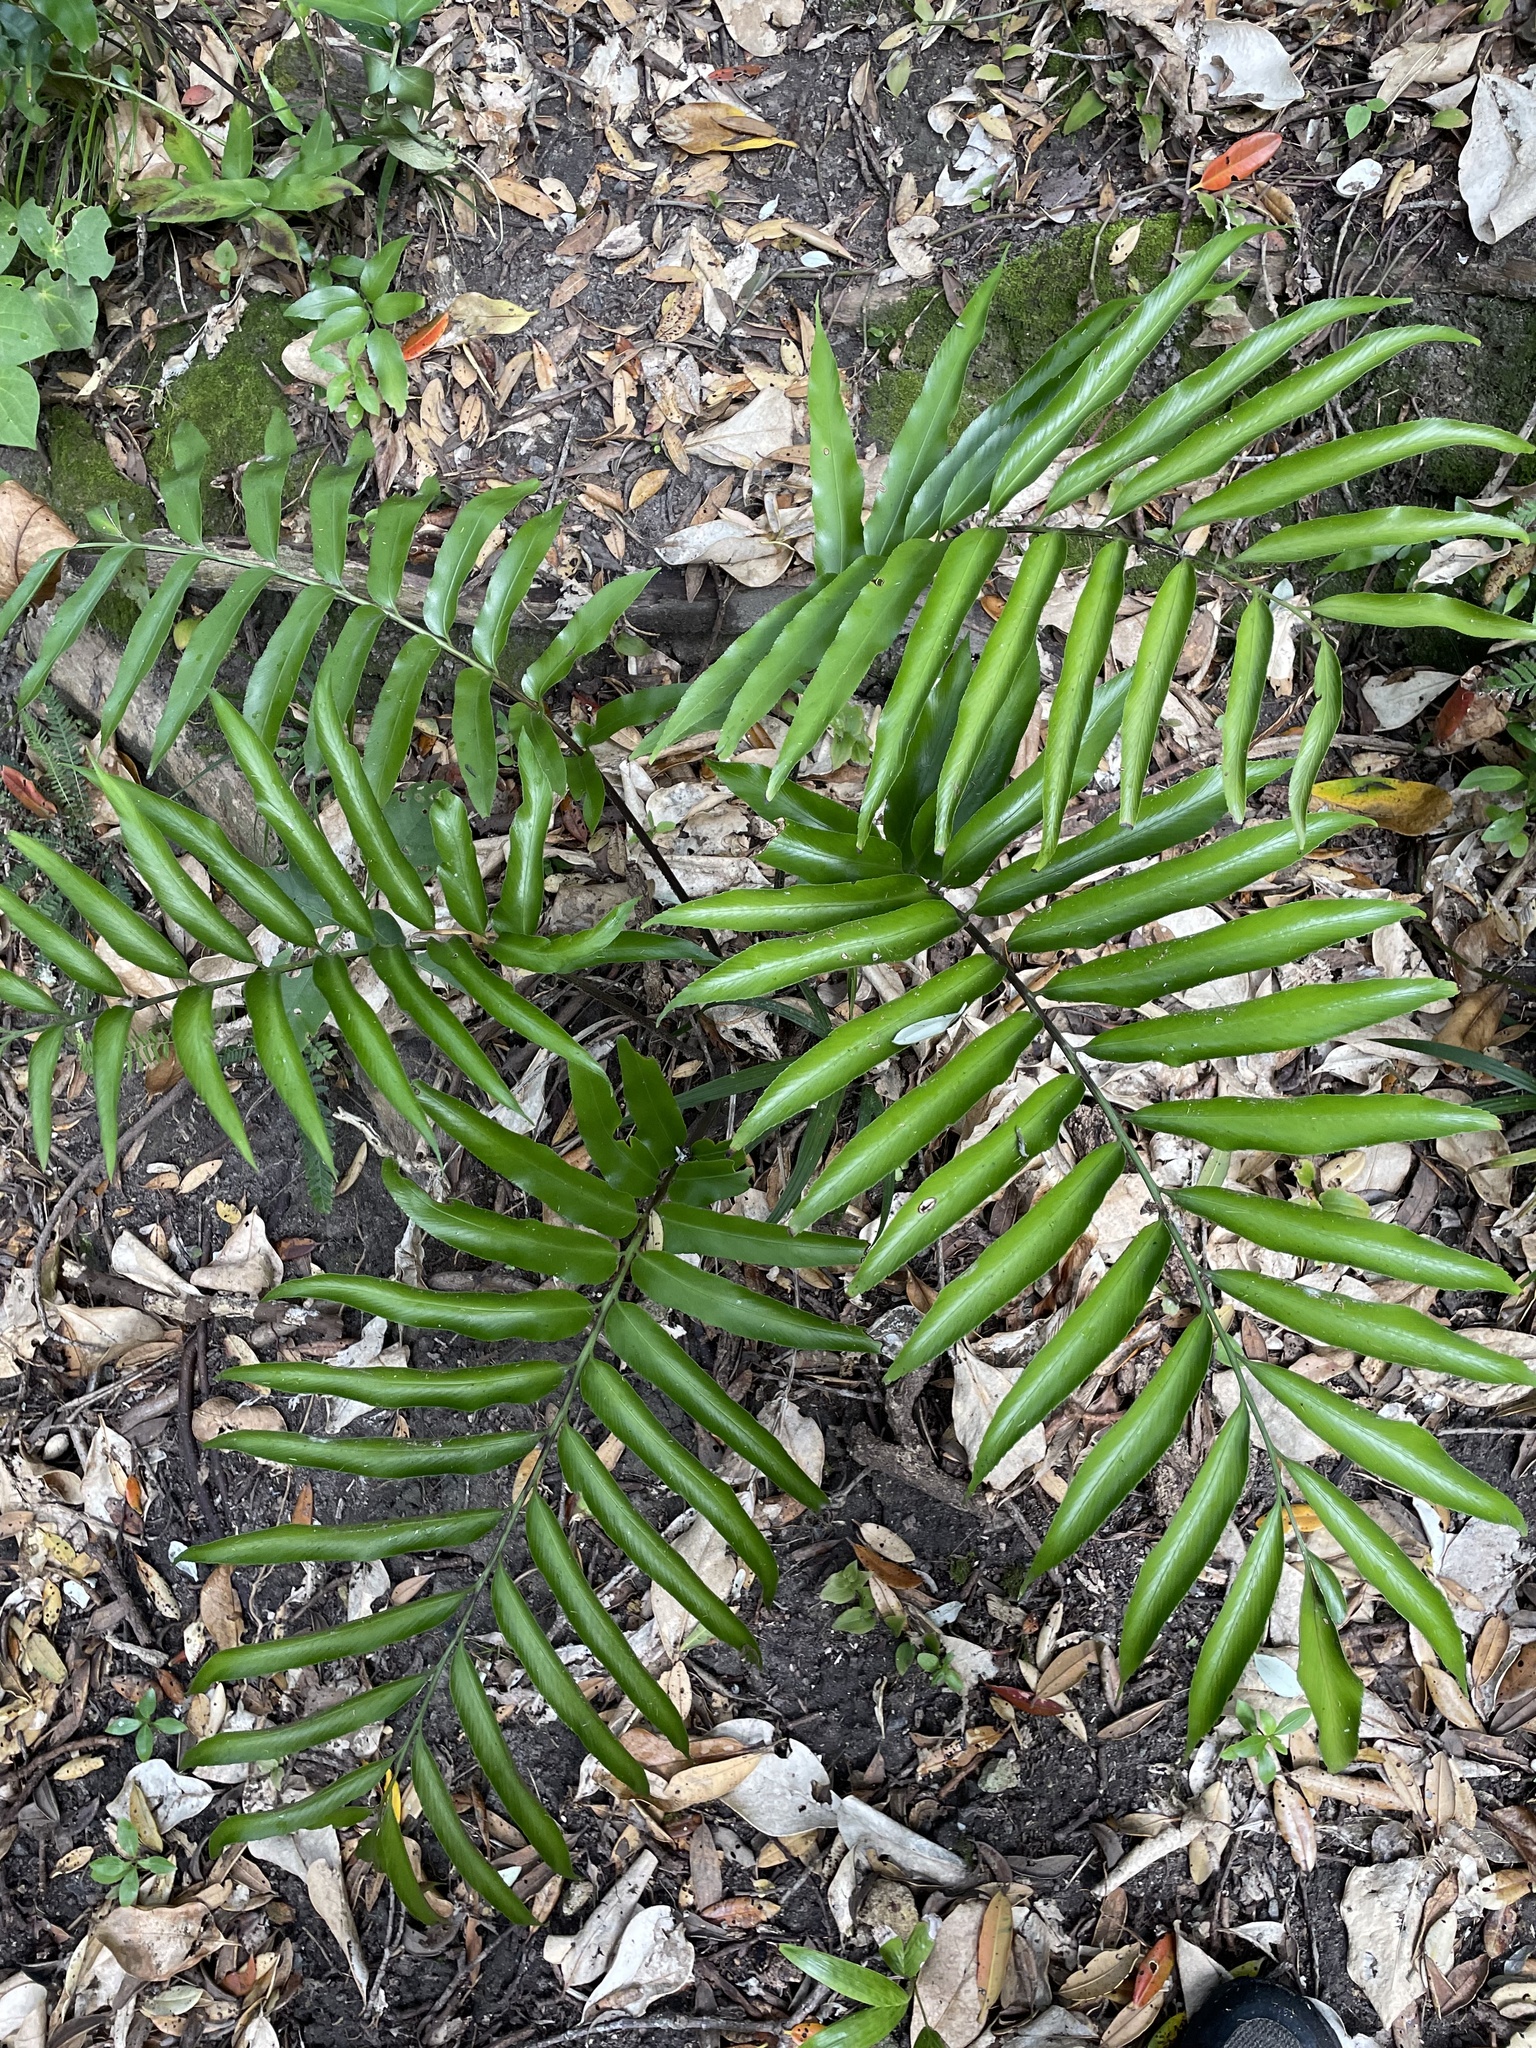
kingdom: Plantae
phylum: Tracheophyta
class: Polypodiopsida
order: Polypodiales
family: Aspleniaceae
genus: Asplenium
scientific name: Asplenium oblongifolium
